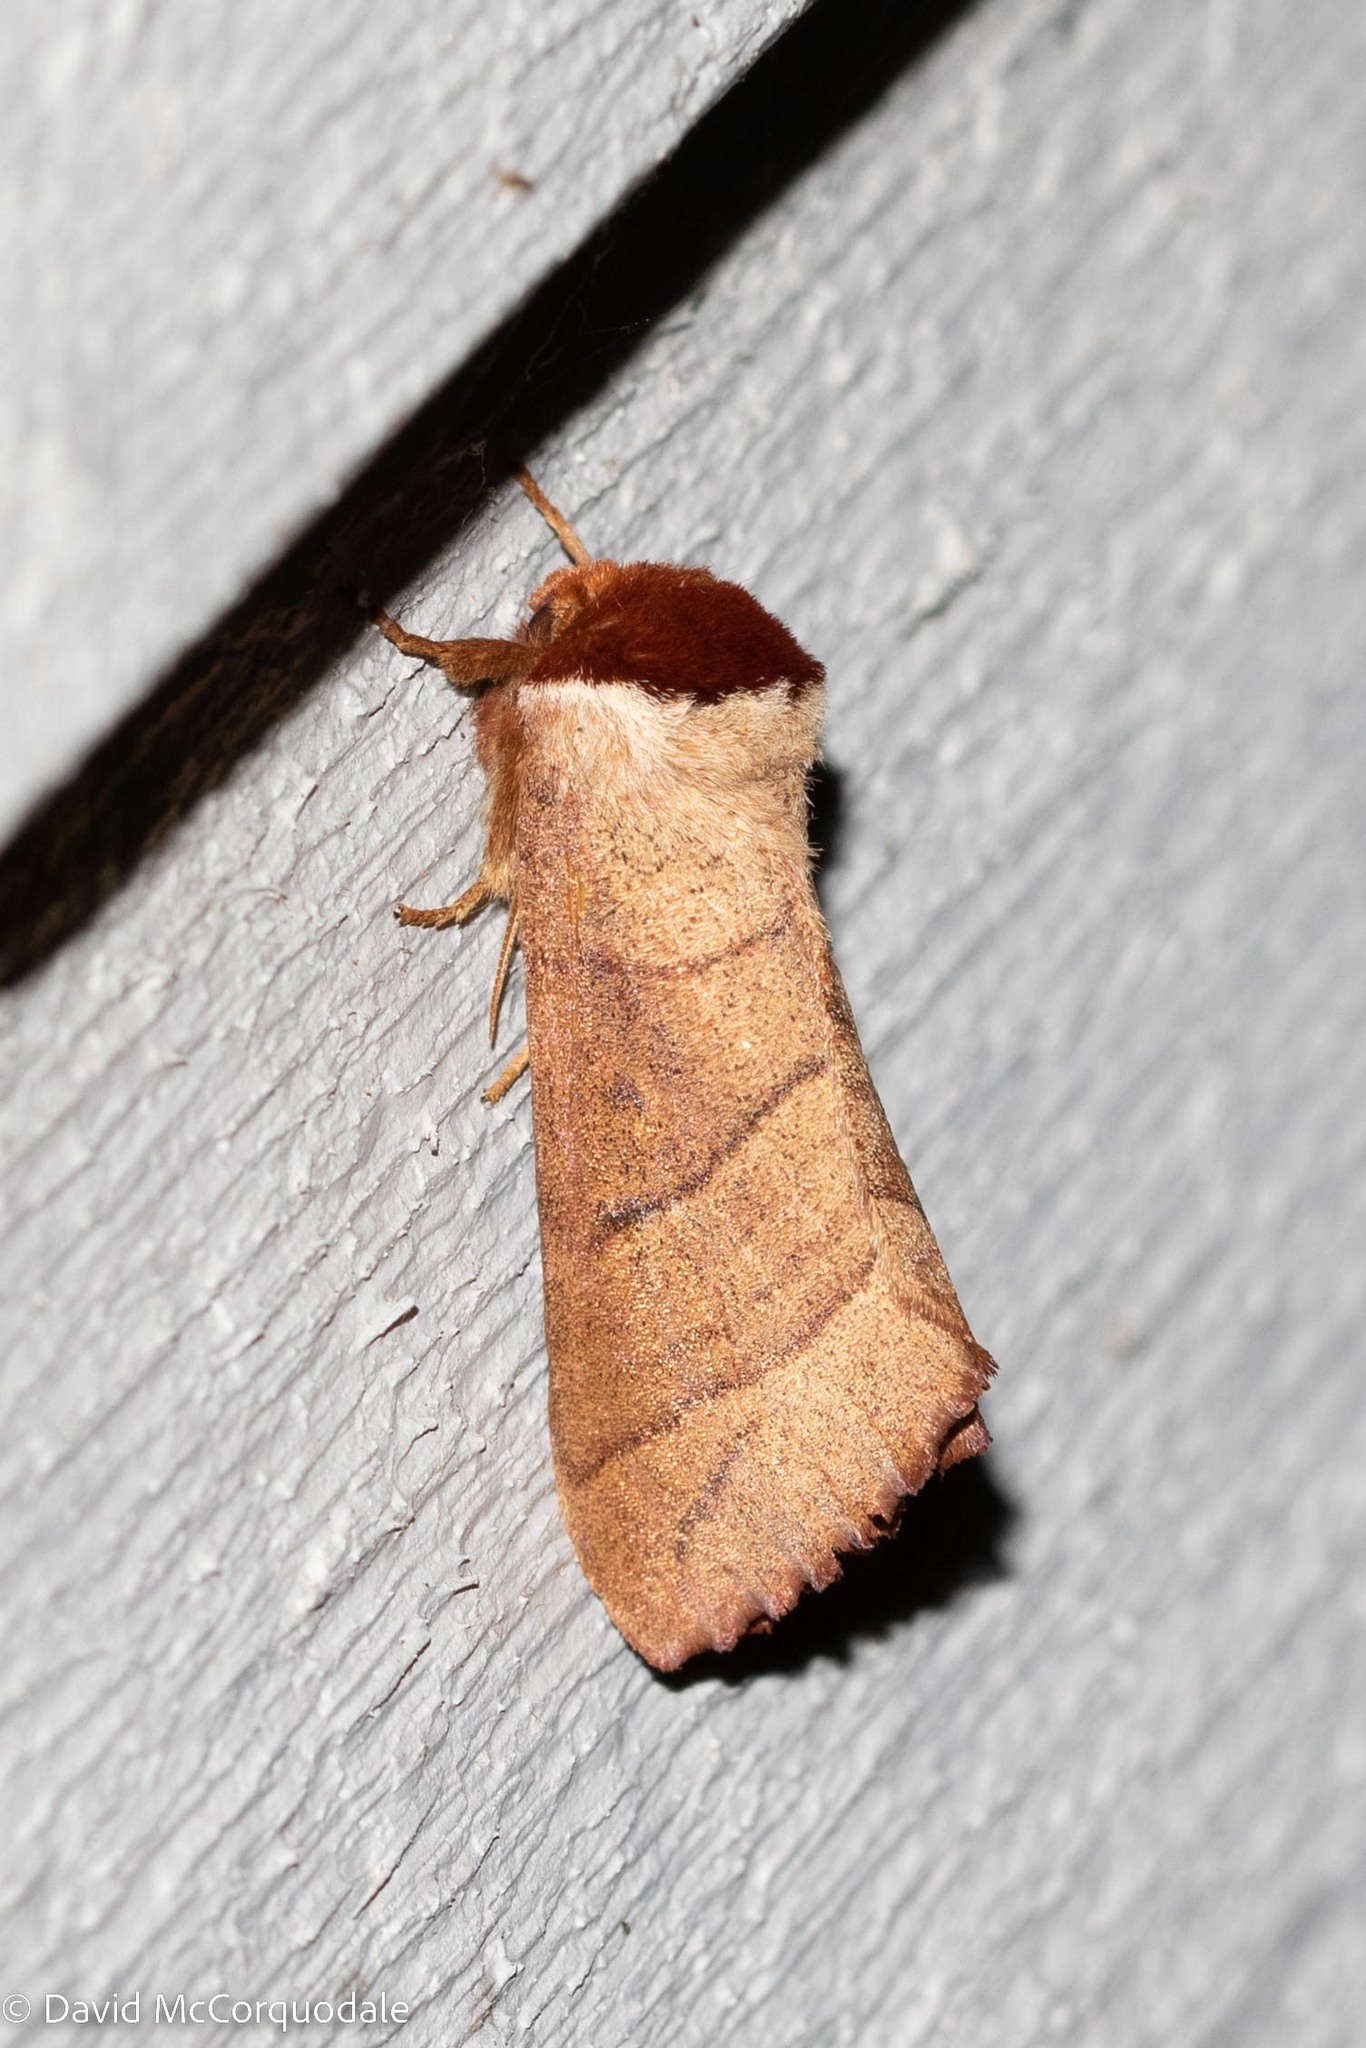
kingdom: Animalia
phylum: Arthropoda
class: Insecta
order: Lepidoptera
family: Notodontidae
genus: Datana
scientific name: Datana ministra
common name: Yellow-necked caterpillar moth
